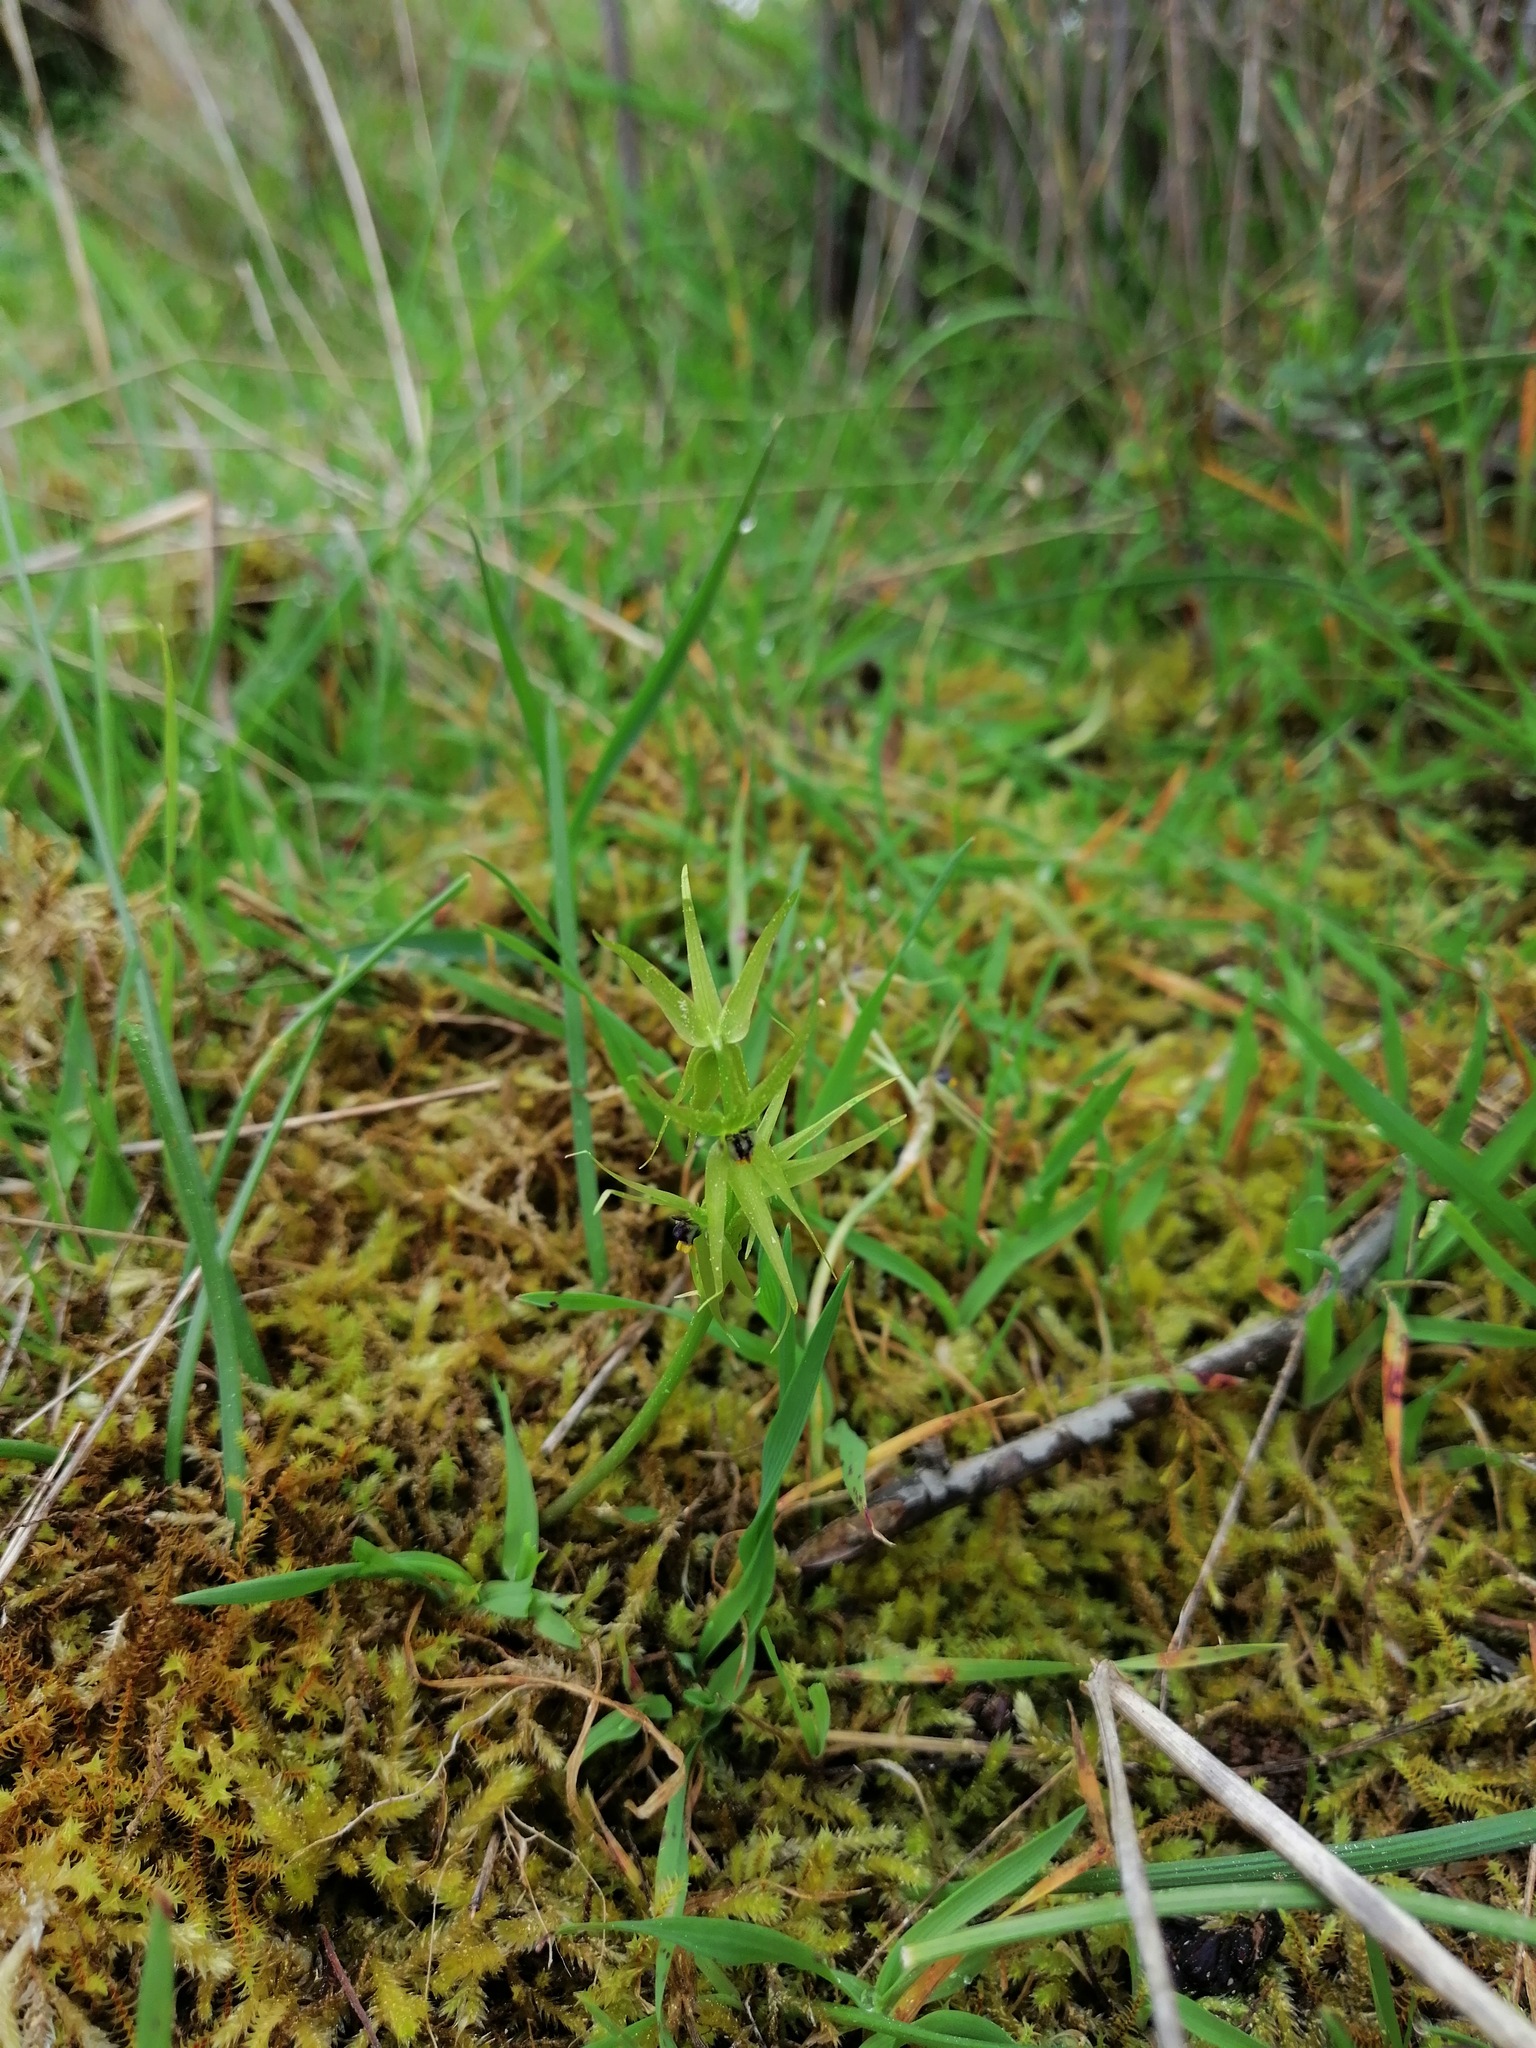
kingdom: Plantae
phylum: Tracheophyta
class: Liliopsida
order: Asparagales
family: Amaryllidaceae
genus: Miersia
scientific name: Miersia chilensis
